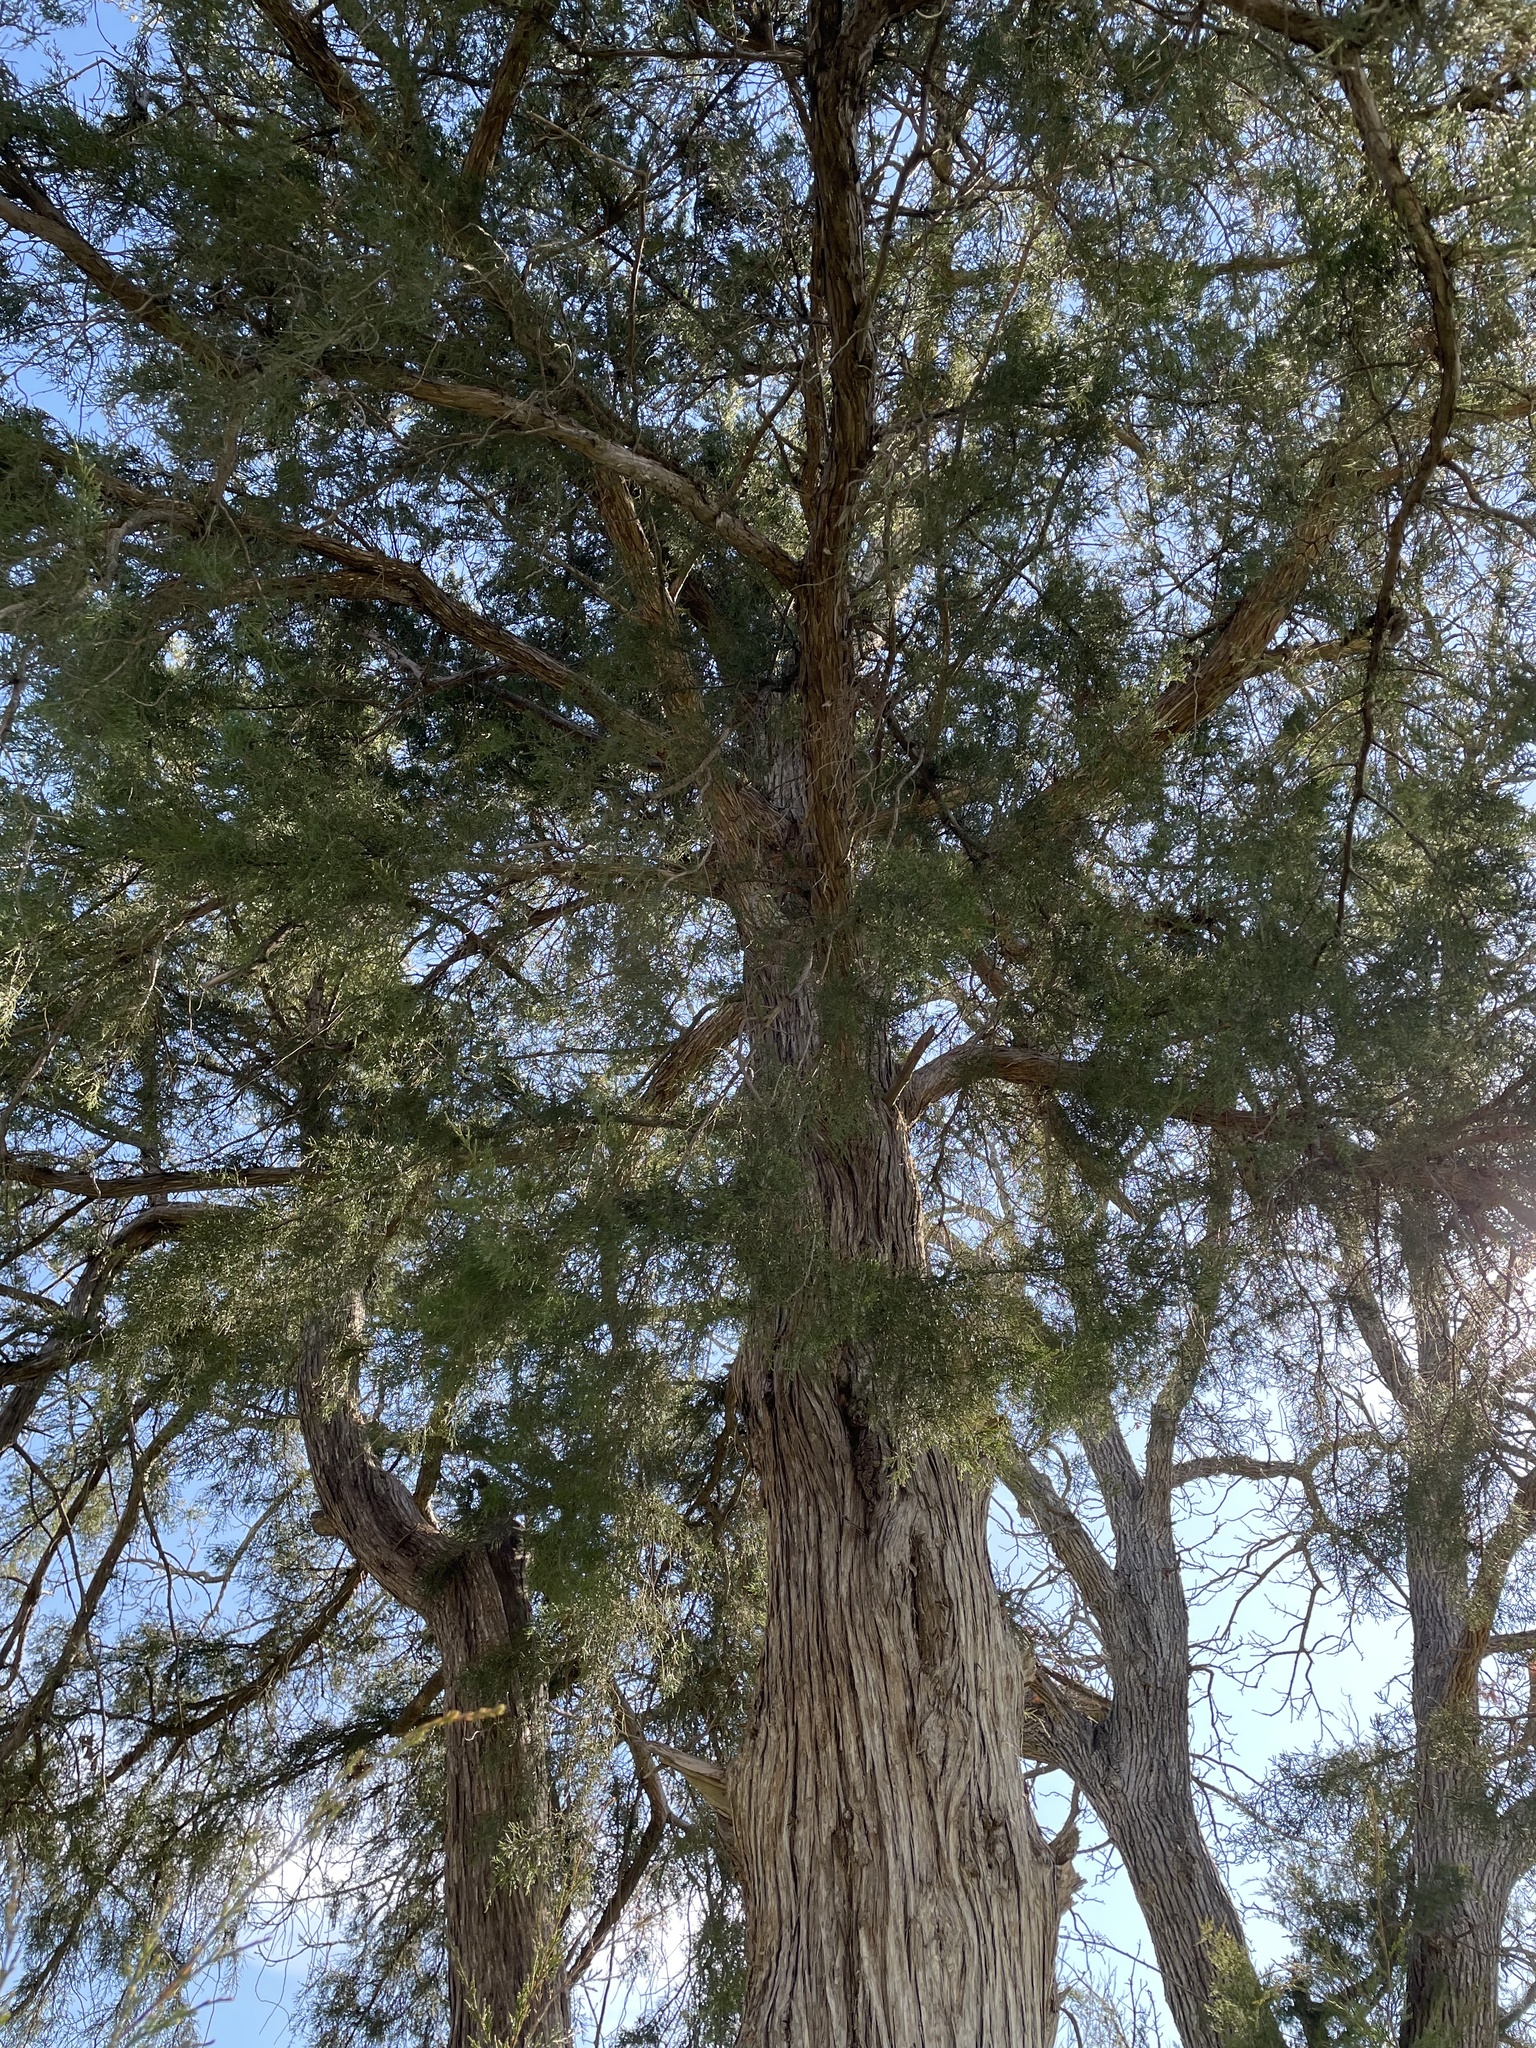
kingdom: Plantae
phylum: Tracheophyta
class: Pinopsida
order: Pinales
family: Cupressaceae
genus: Juniperus
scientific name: Juniperus virginiana
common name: Red juniper
